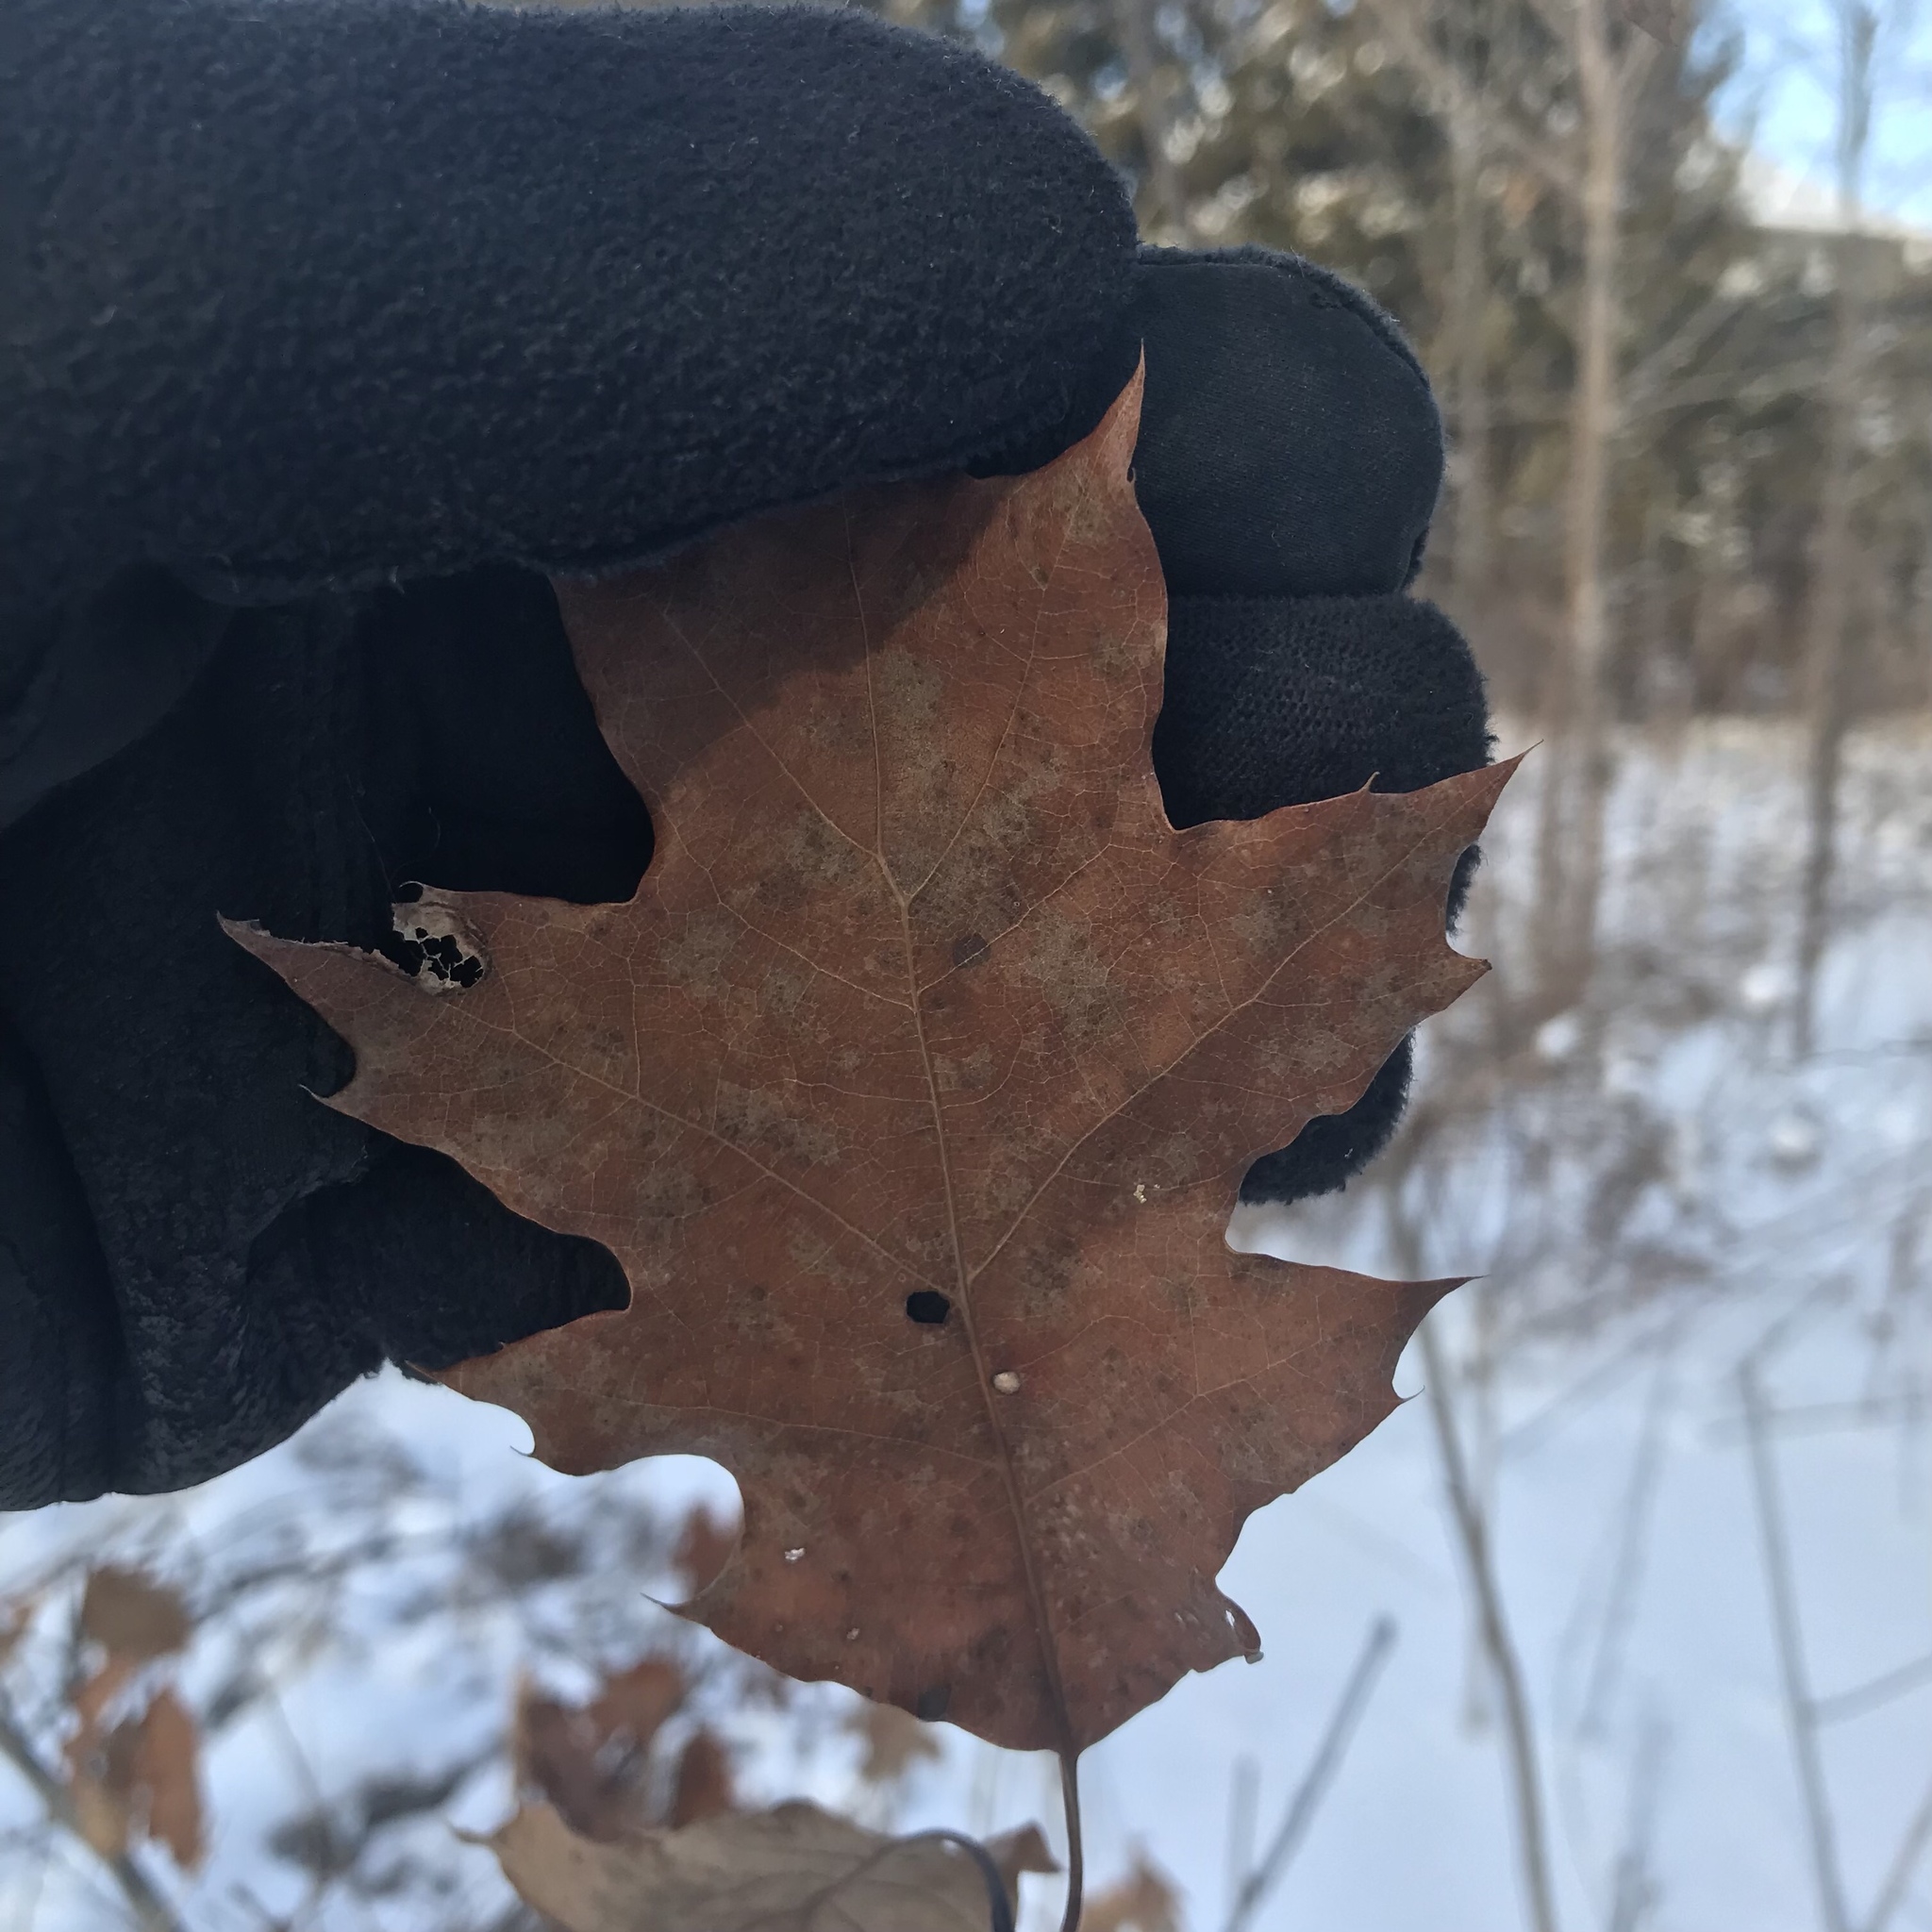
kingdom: Plantae
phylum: Tracheophyta
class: Magnoliopsida
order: Fagales
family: Fagaceae
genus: Quercus
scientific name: Quercus rubra
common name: Red oak
